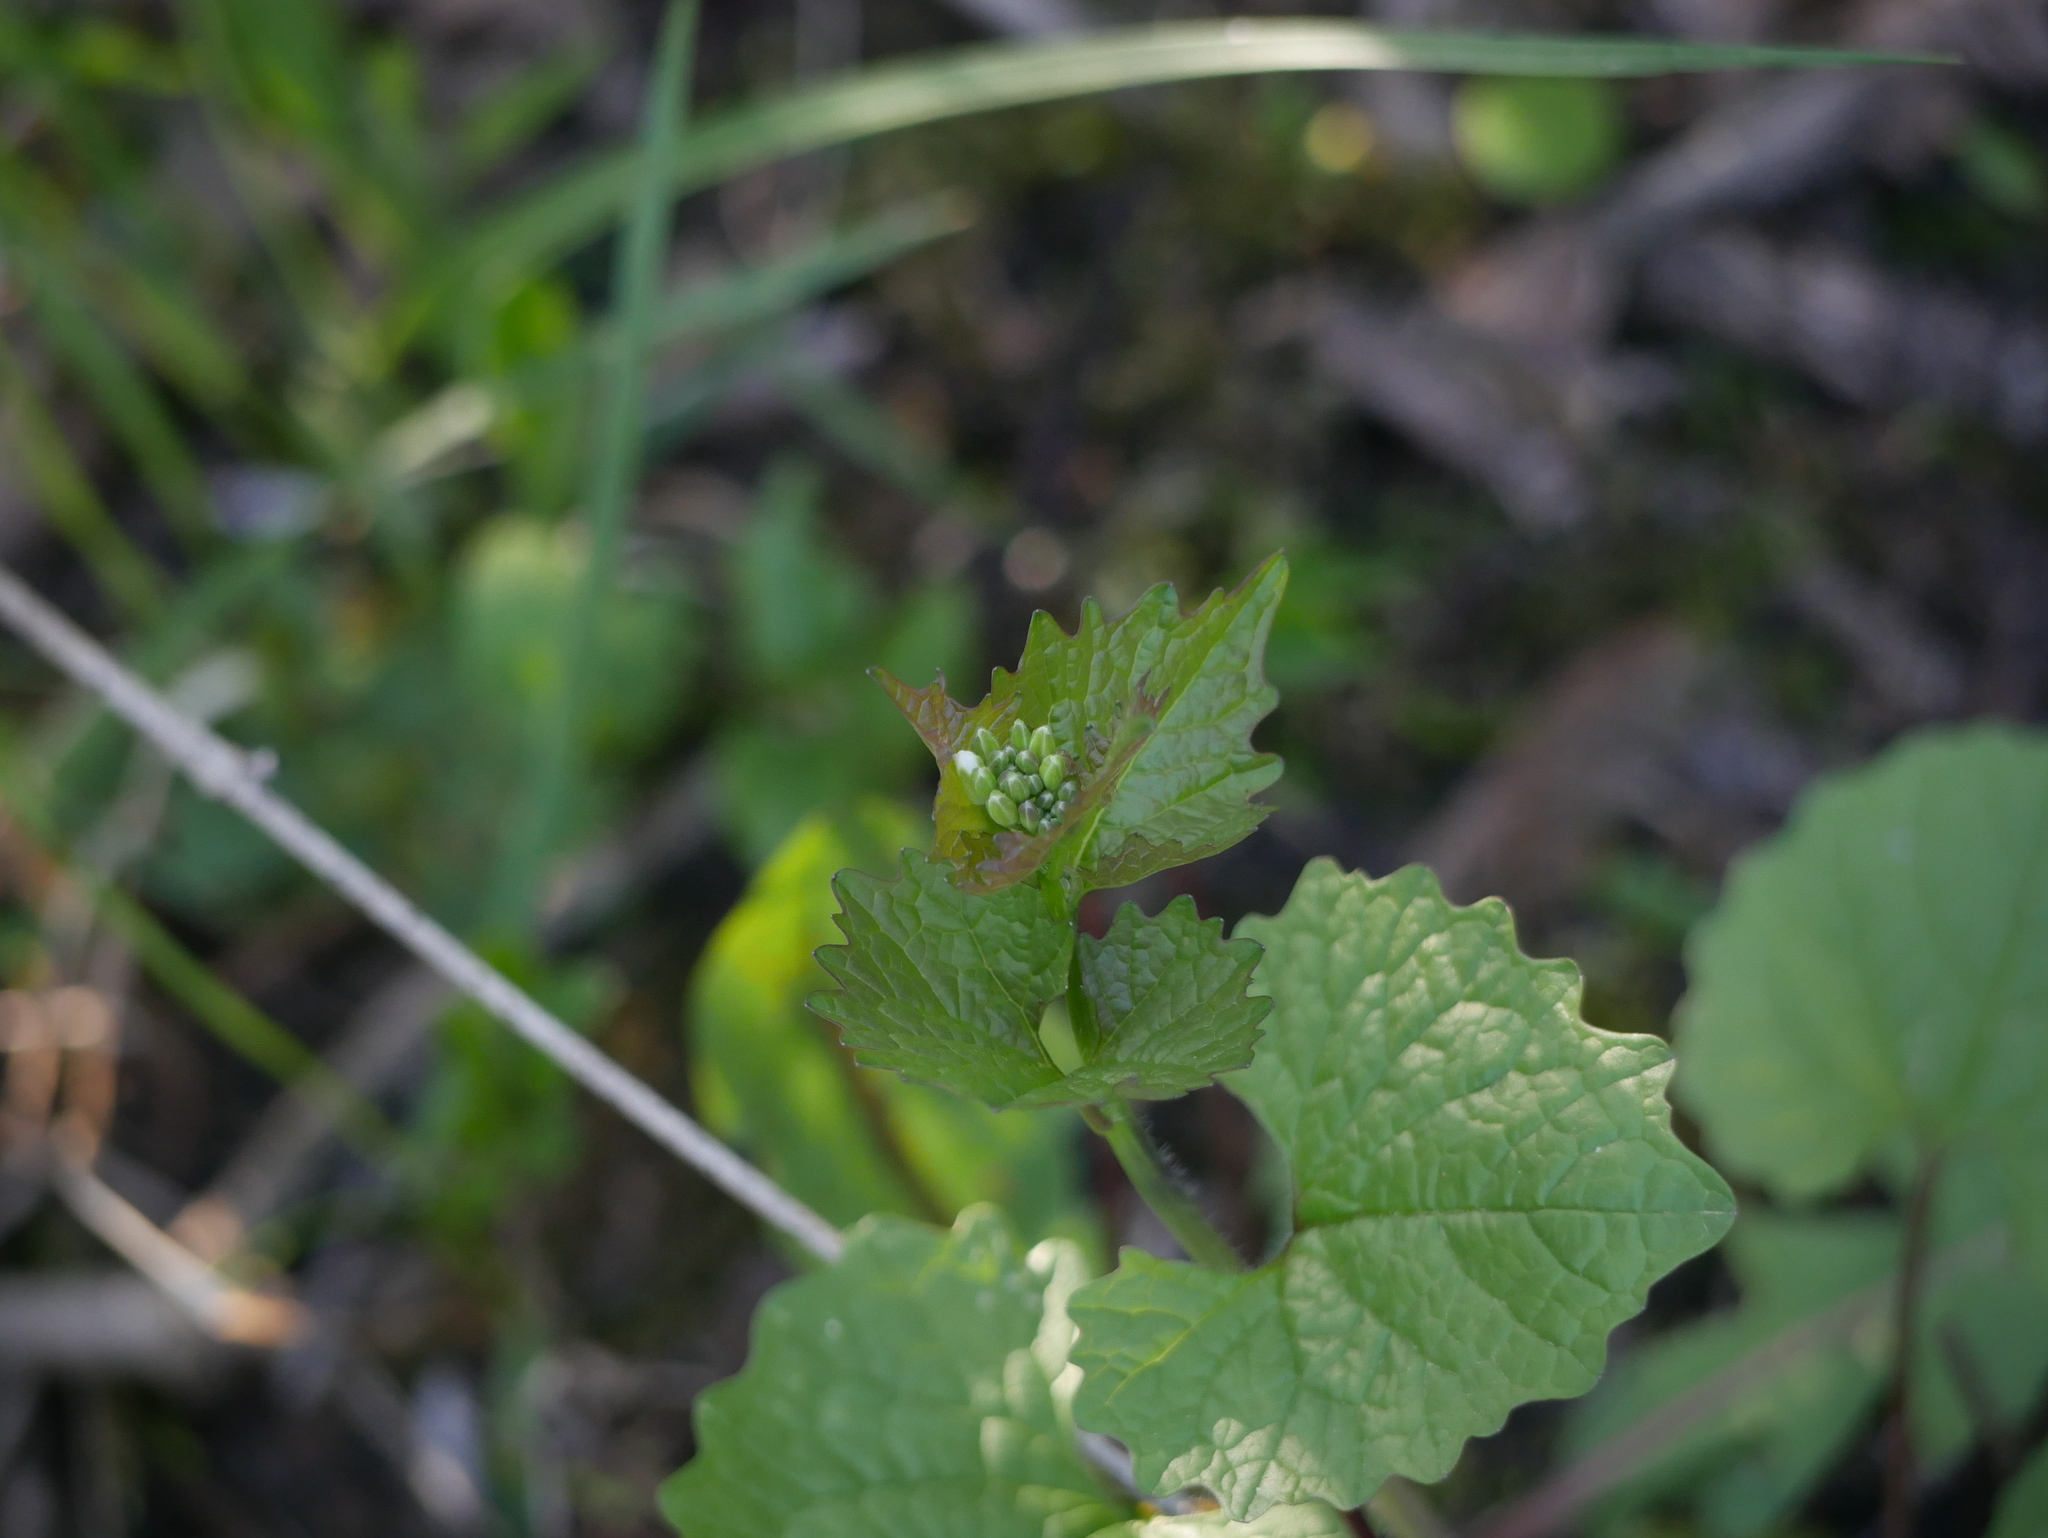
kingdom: Plantae
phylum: Tracheophyta
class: Magnoliopsida
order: Brassicales
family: Brassicaceae
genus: Alliaria
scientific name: Alliaria petiolata
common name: Garlic mustard
